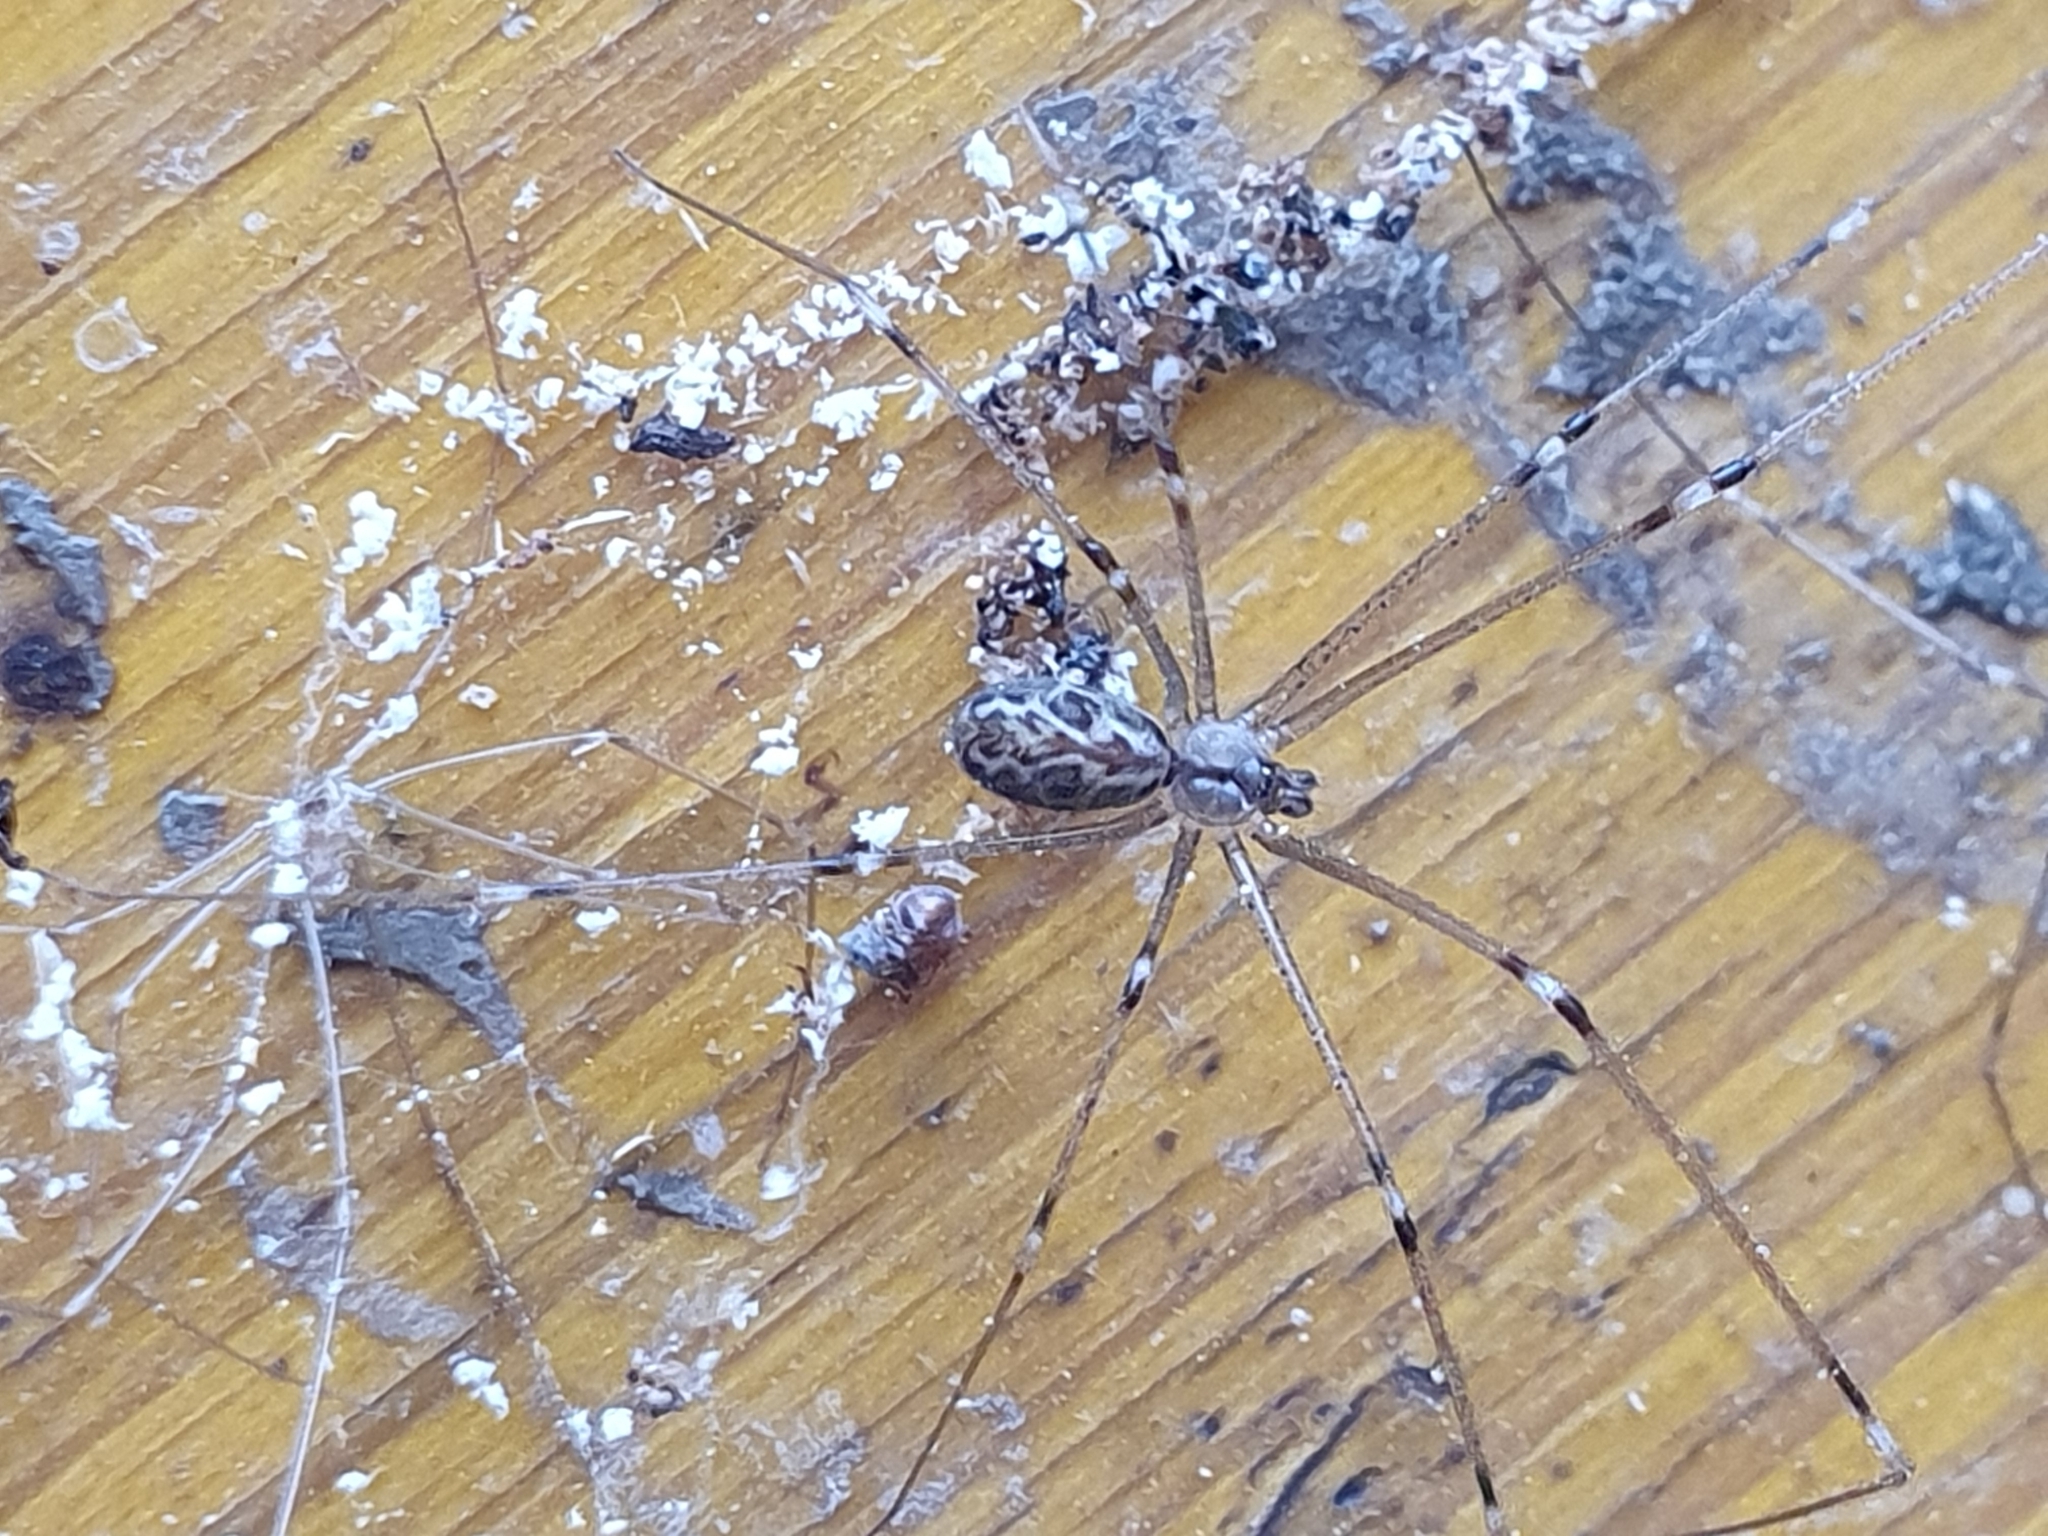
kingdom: Animalia
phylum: Arthropoda
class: Arachnida
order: Araneae
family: Pholcidae
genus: Holocnemus
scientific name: Holocnemus pluchei
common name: Marbled cellar spider
